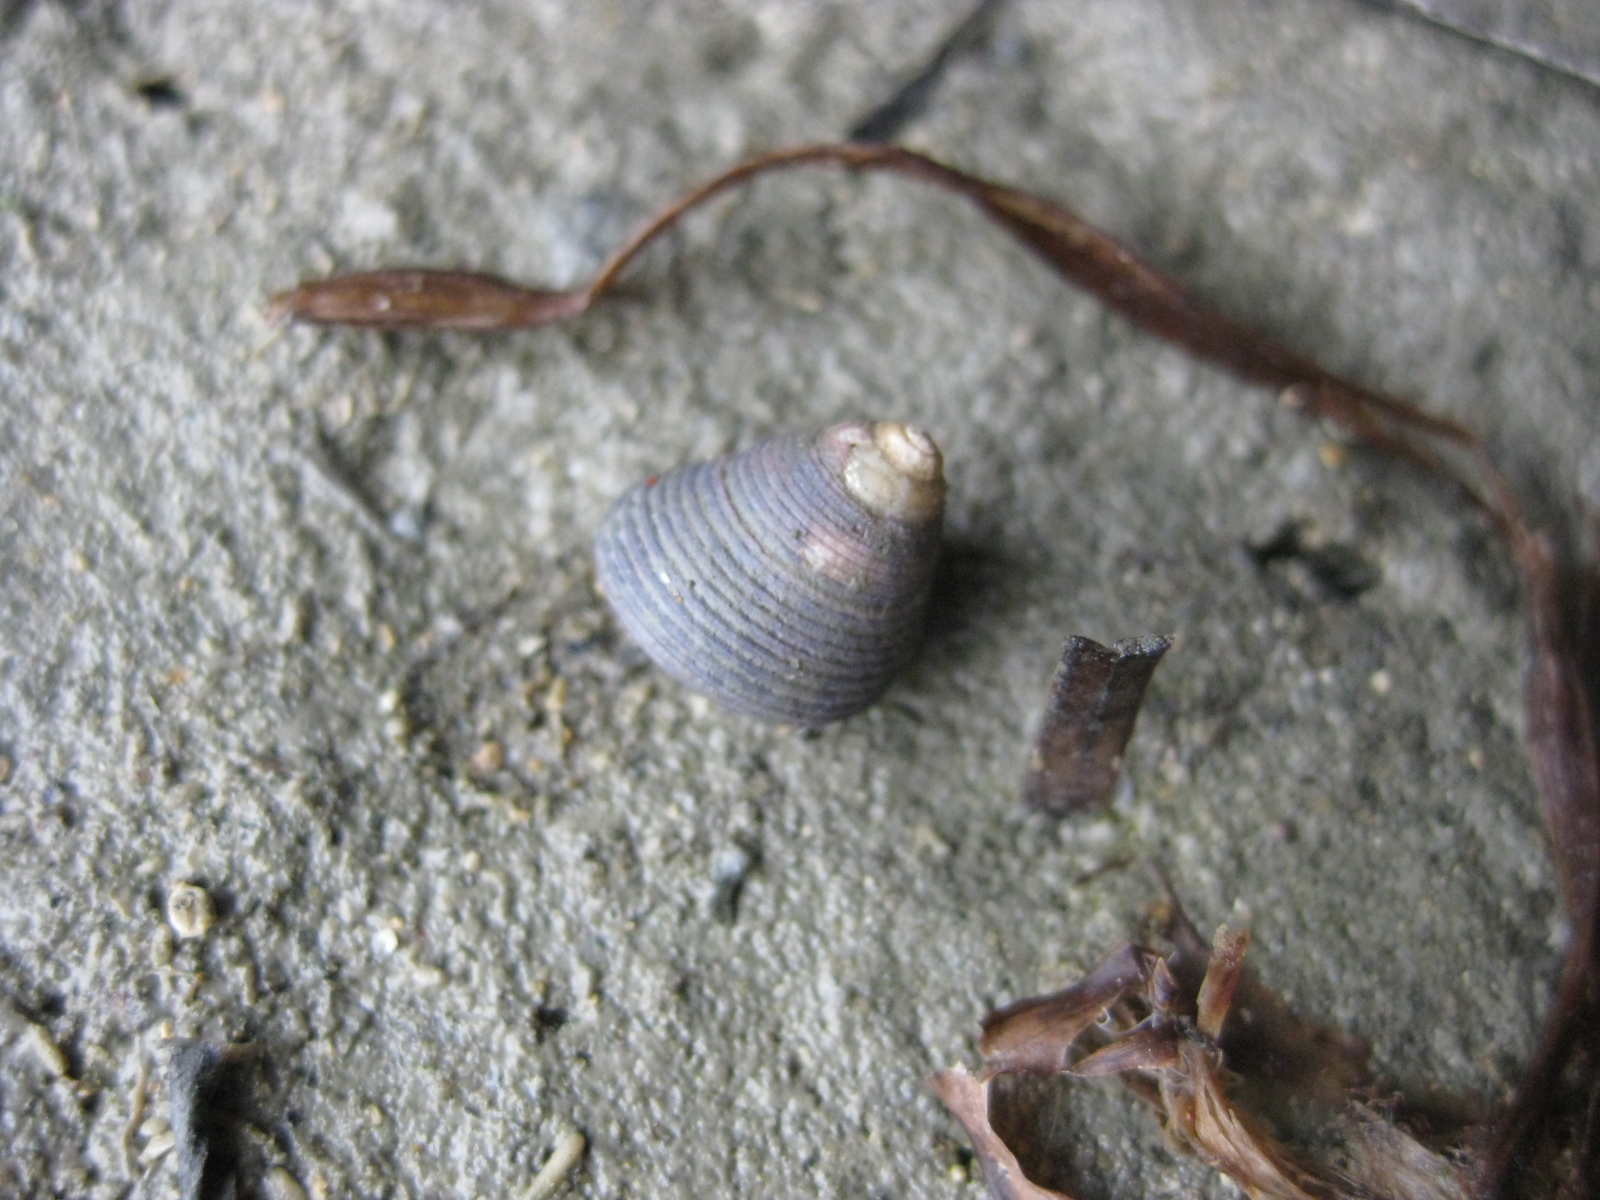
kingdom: Animalia
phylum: Mollusca
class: Gastropoda
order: Trochida
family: Trochidae
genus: Micrelenchus
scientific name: Micrelenchus huttonii
